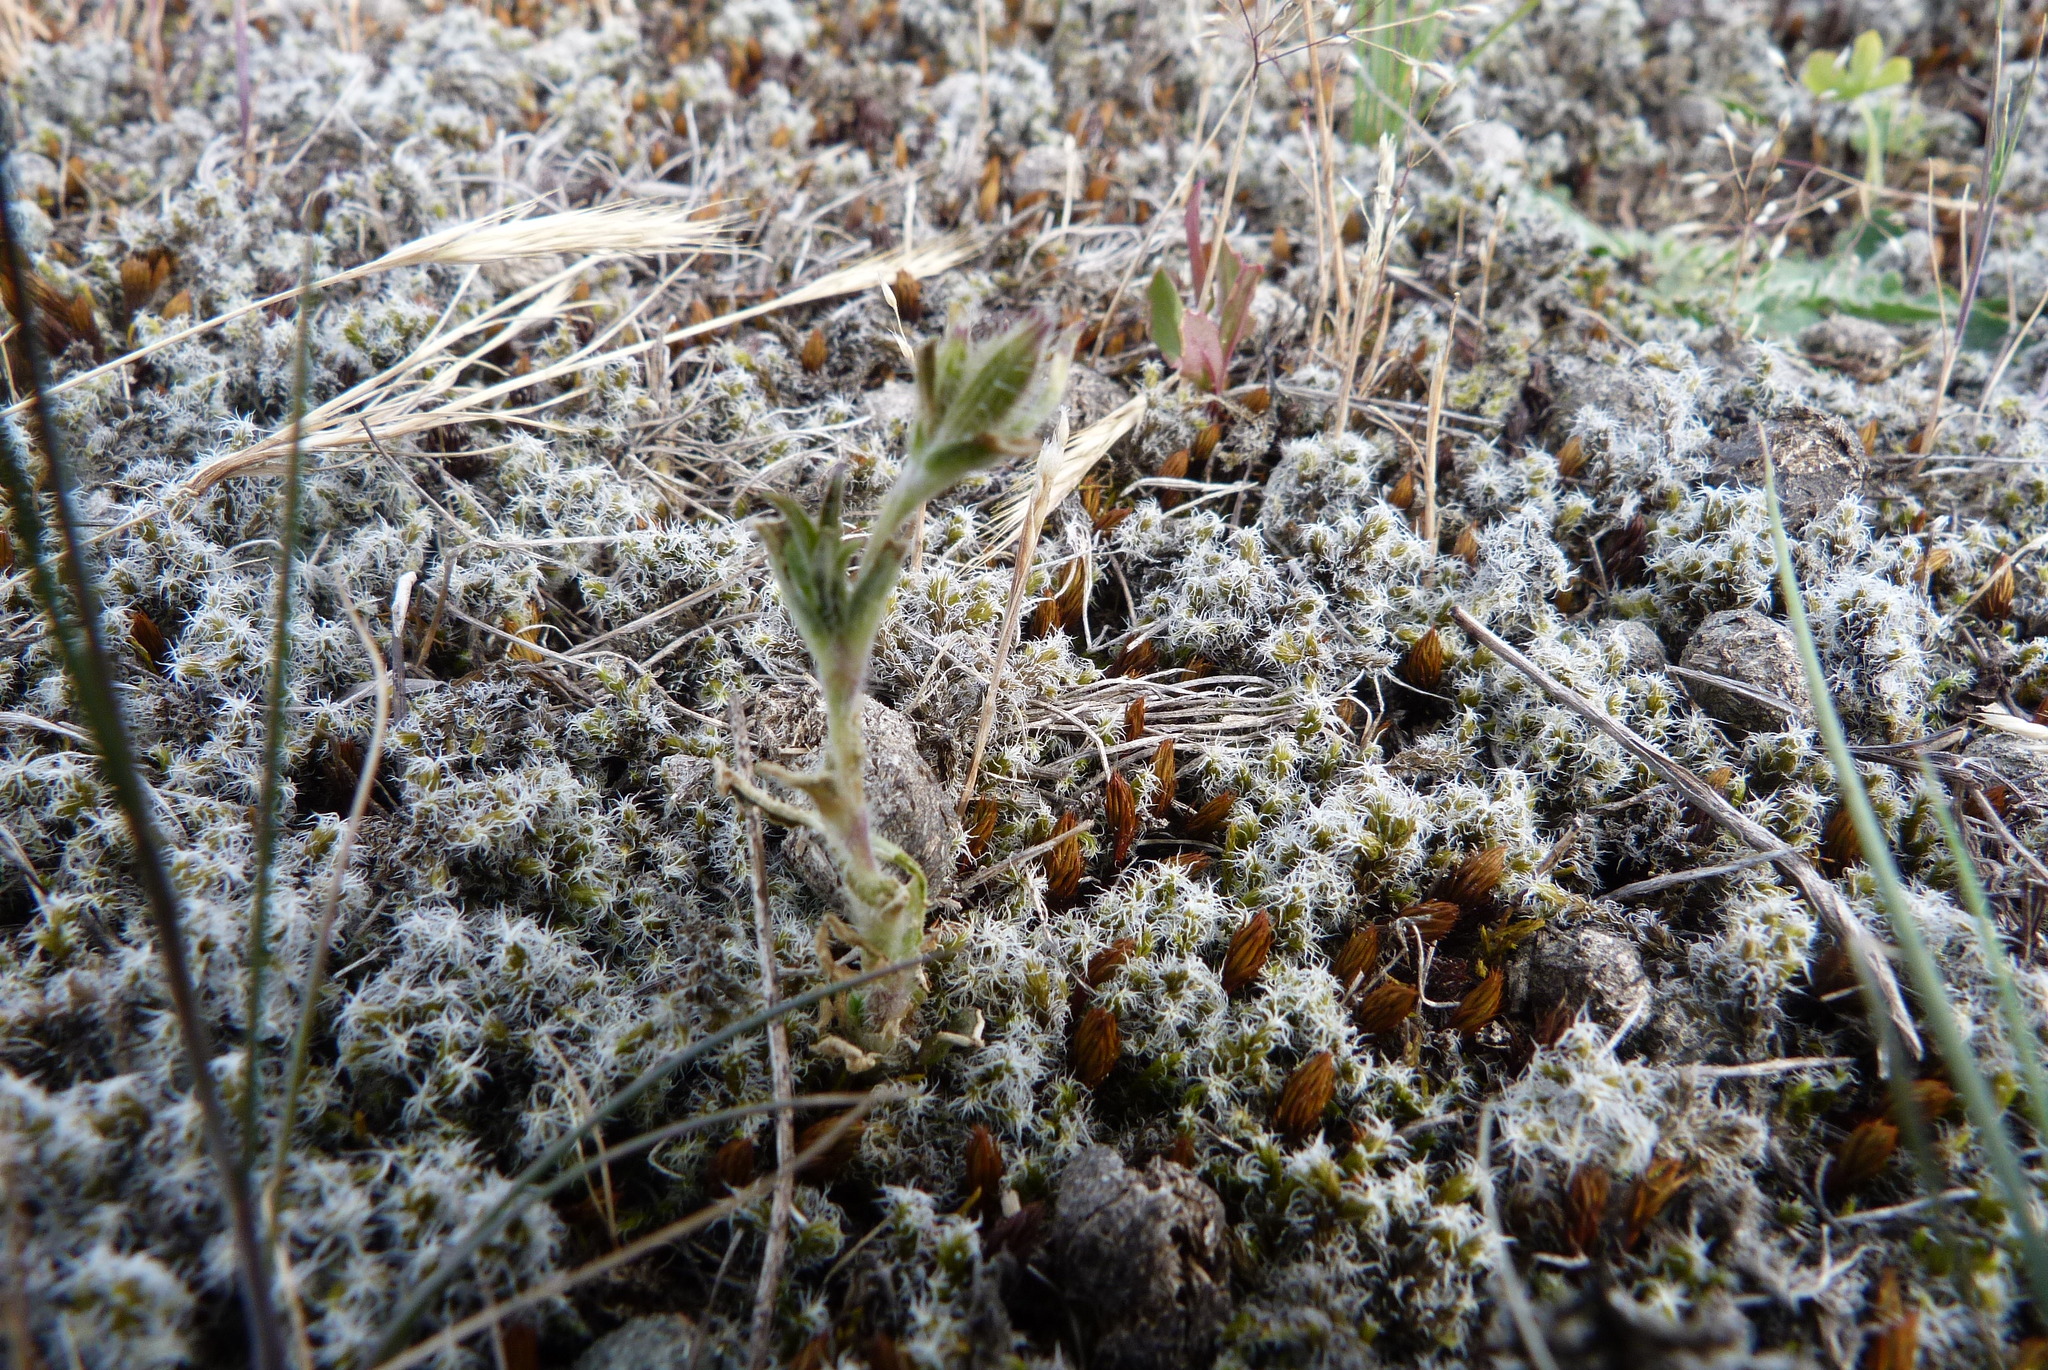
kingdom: Plantae
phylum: Tracheophyta
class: Magnoliopsida
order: Caryophyllales
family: Caryophyllaceae
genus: Gypsophila
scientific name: Gypsophila australis
